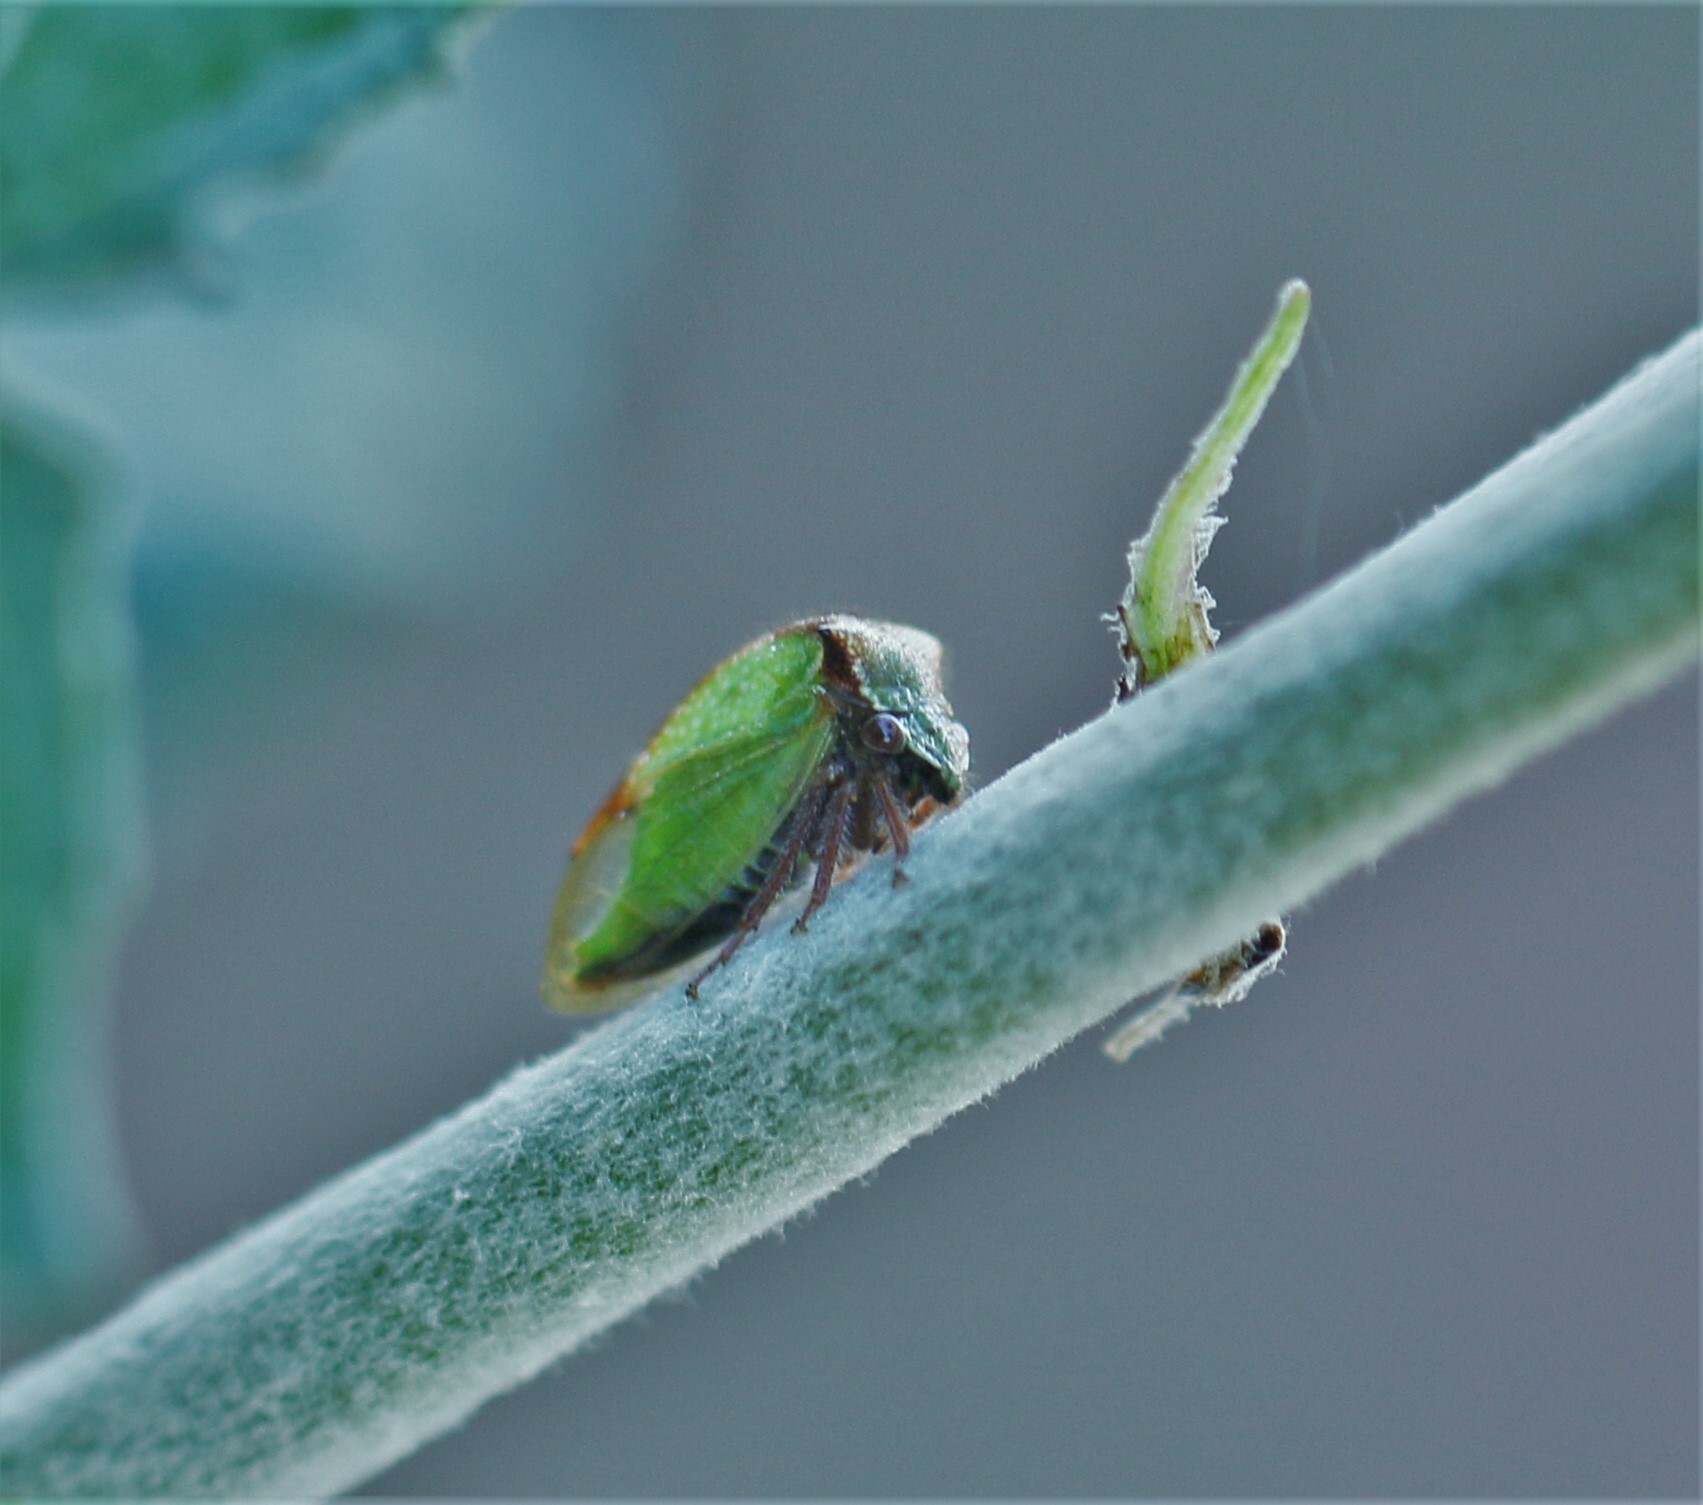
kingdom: Animalia
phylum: Arthropoda
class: Insecta
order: Hemiptera
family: Membracidae
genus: Stictocephala
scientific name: Stictocephala basalis
